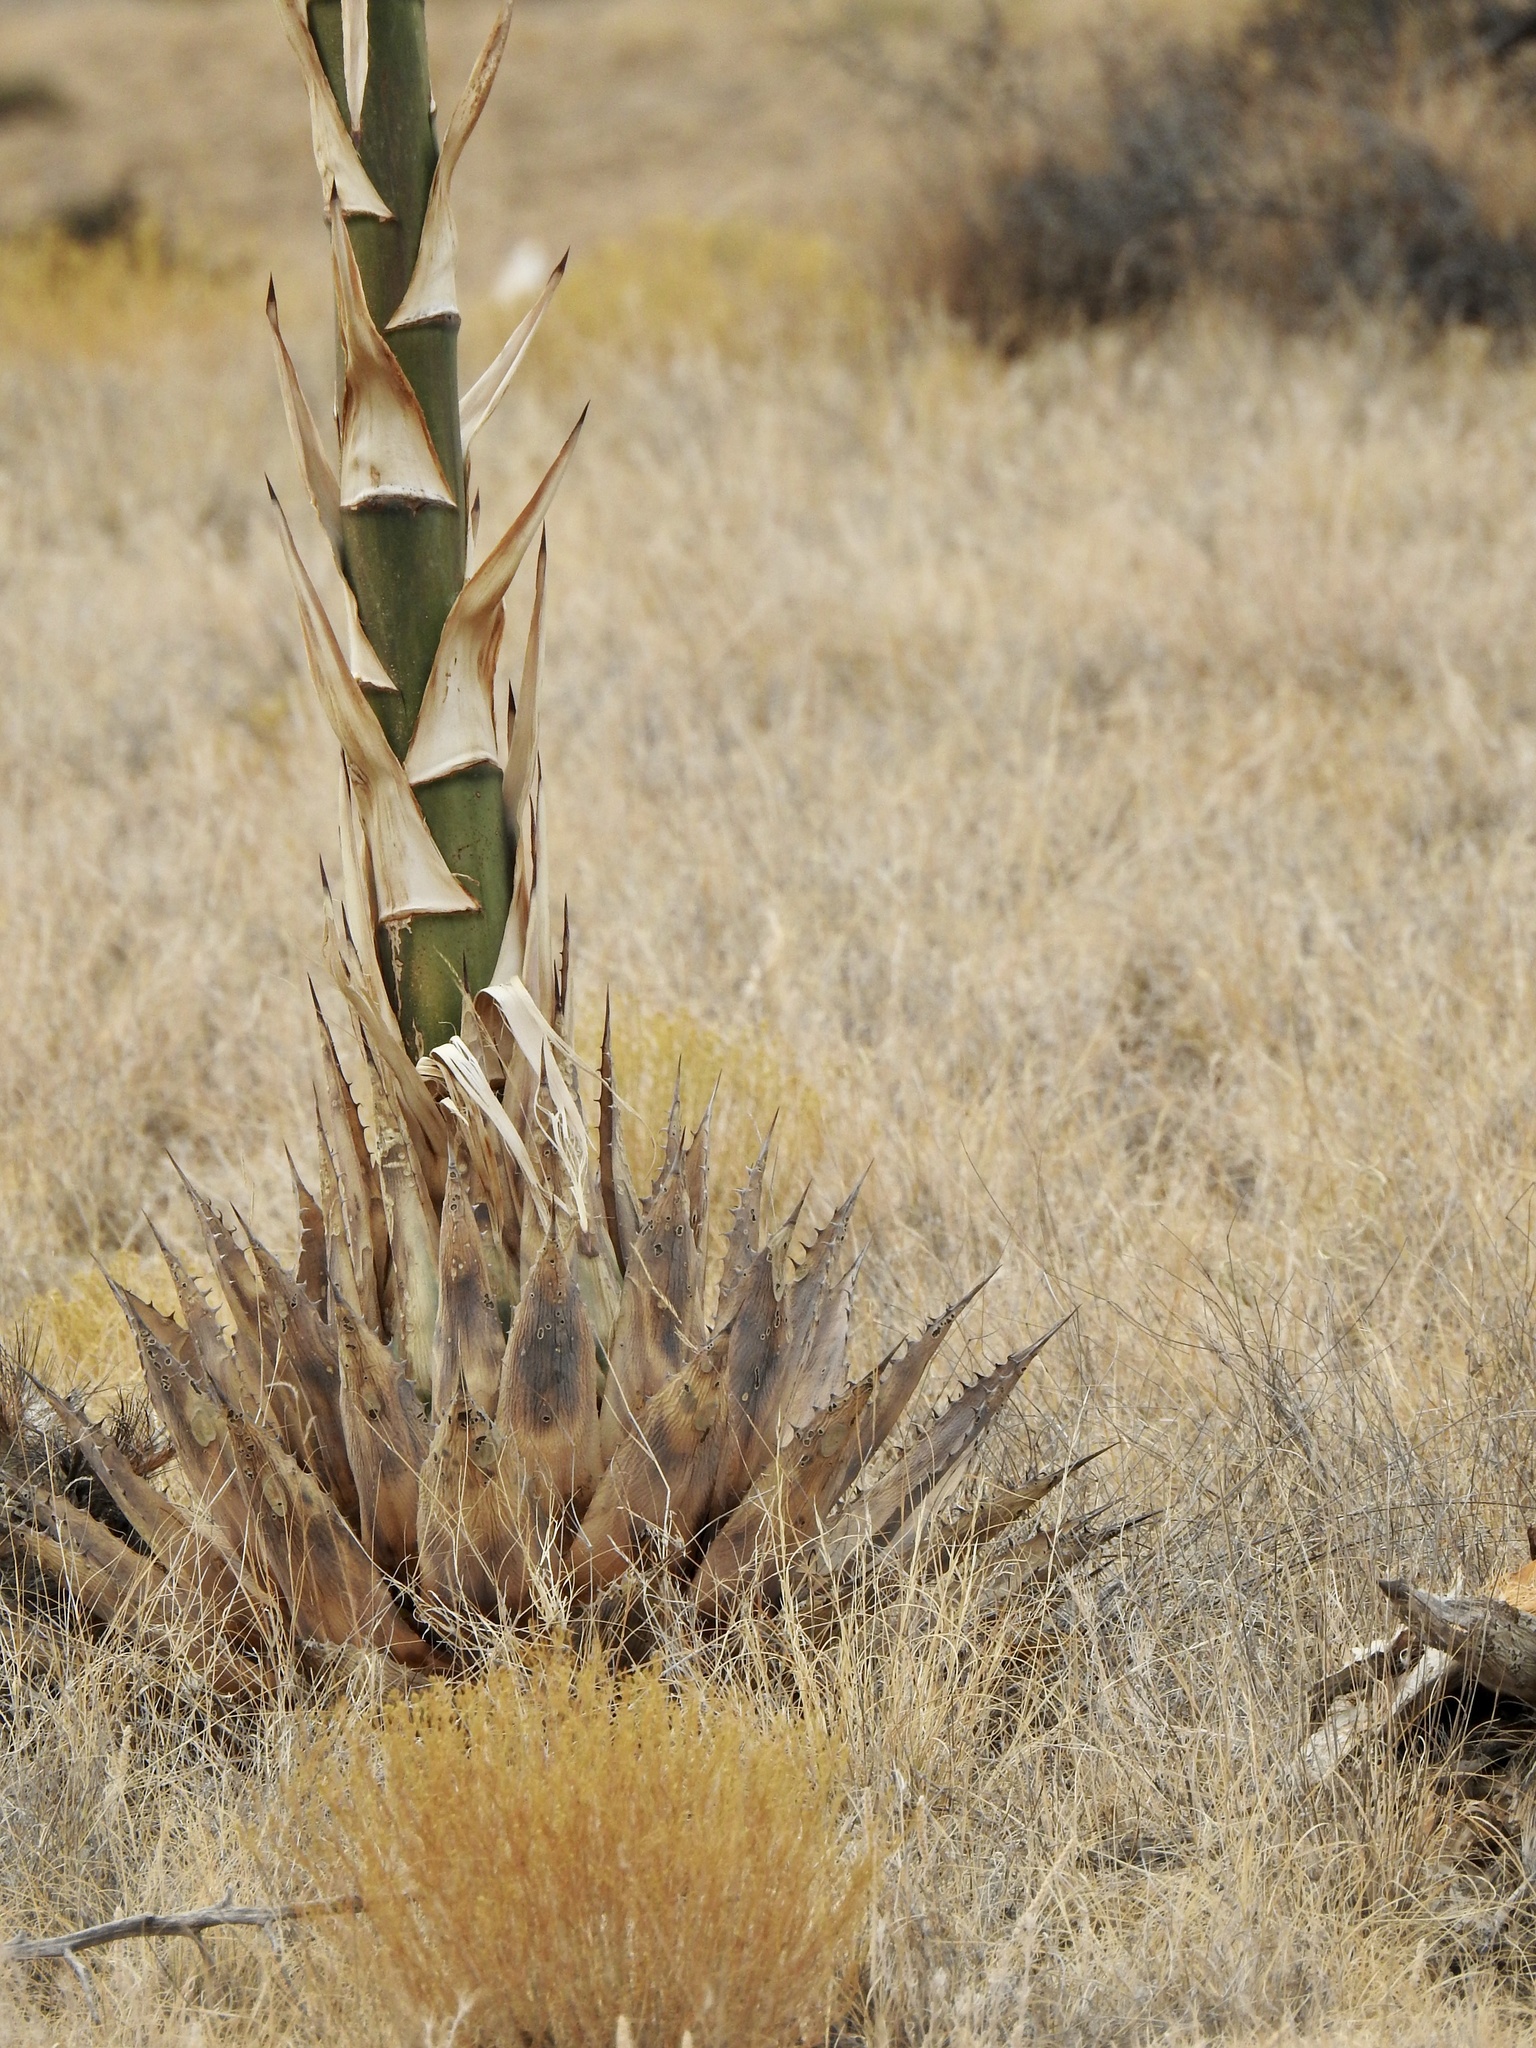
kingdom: Plantae
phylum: Tracheophyta
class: Liliopsida
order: Asparagales
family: Asparagaceae
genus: Agave
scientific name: Agave parryi
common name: Parry's agave
